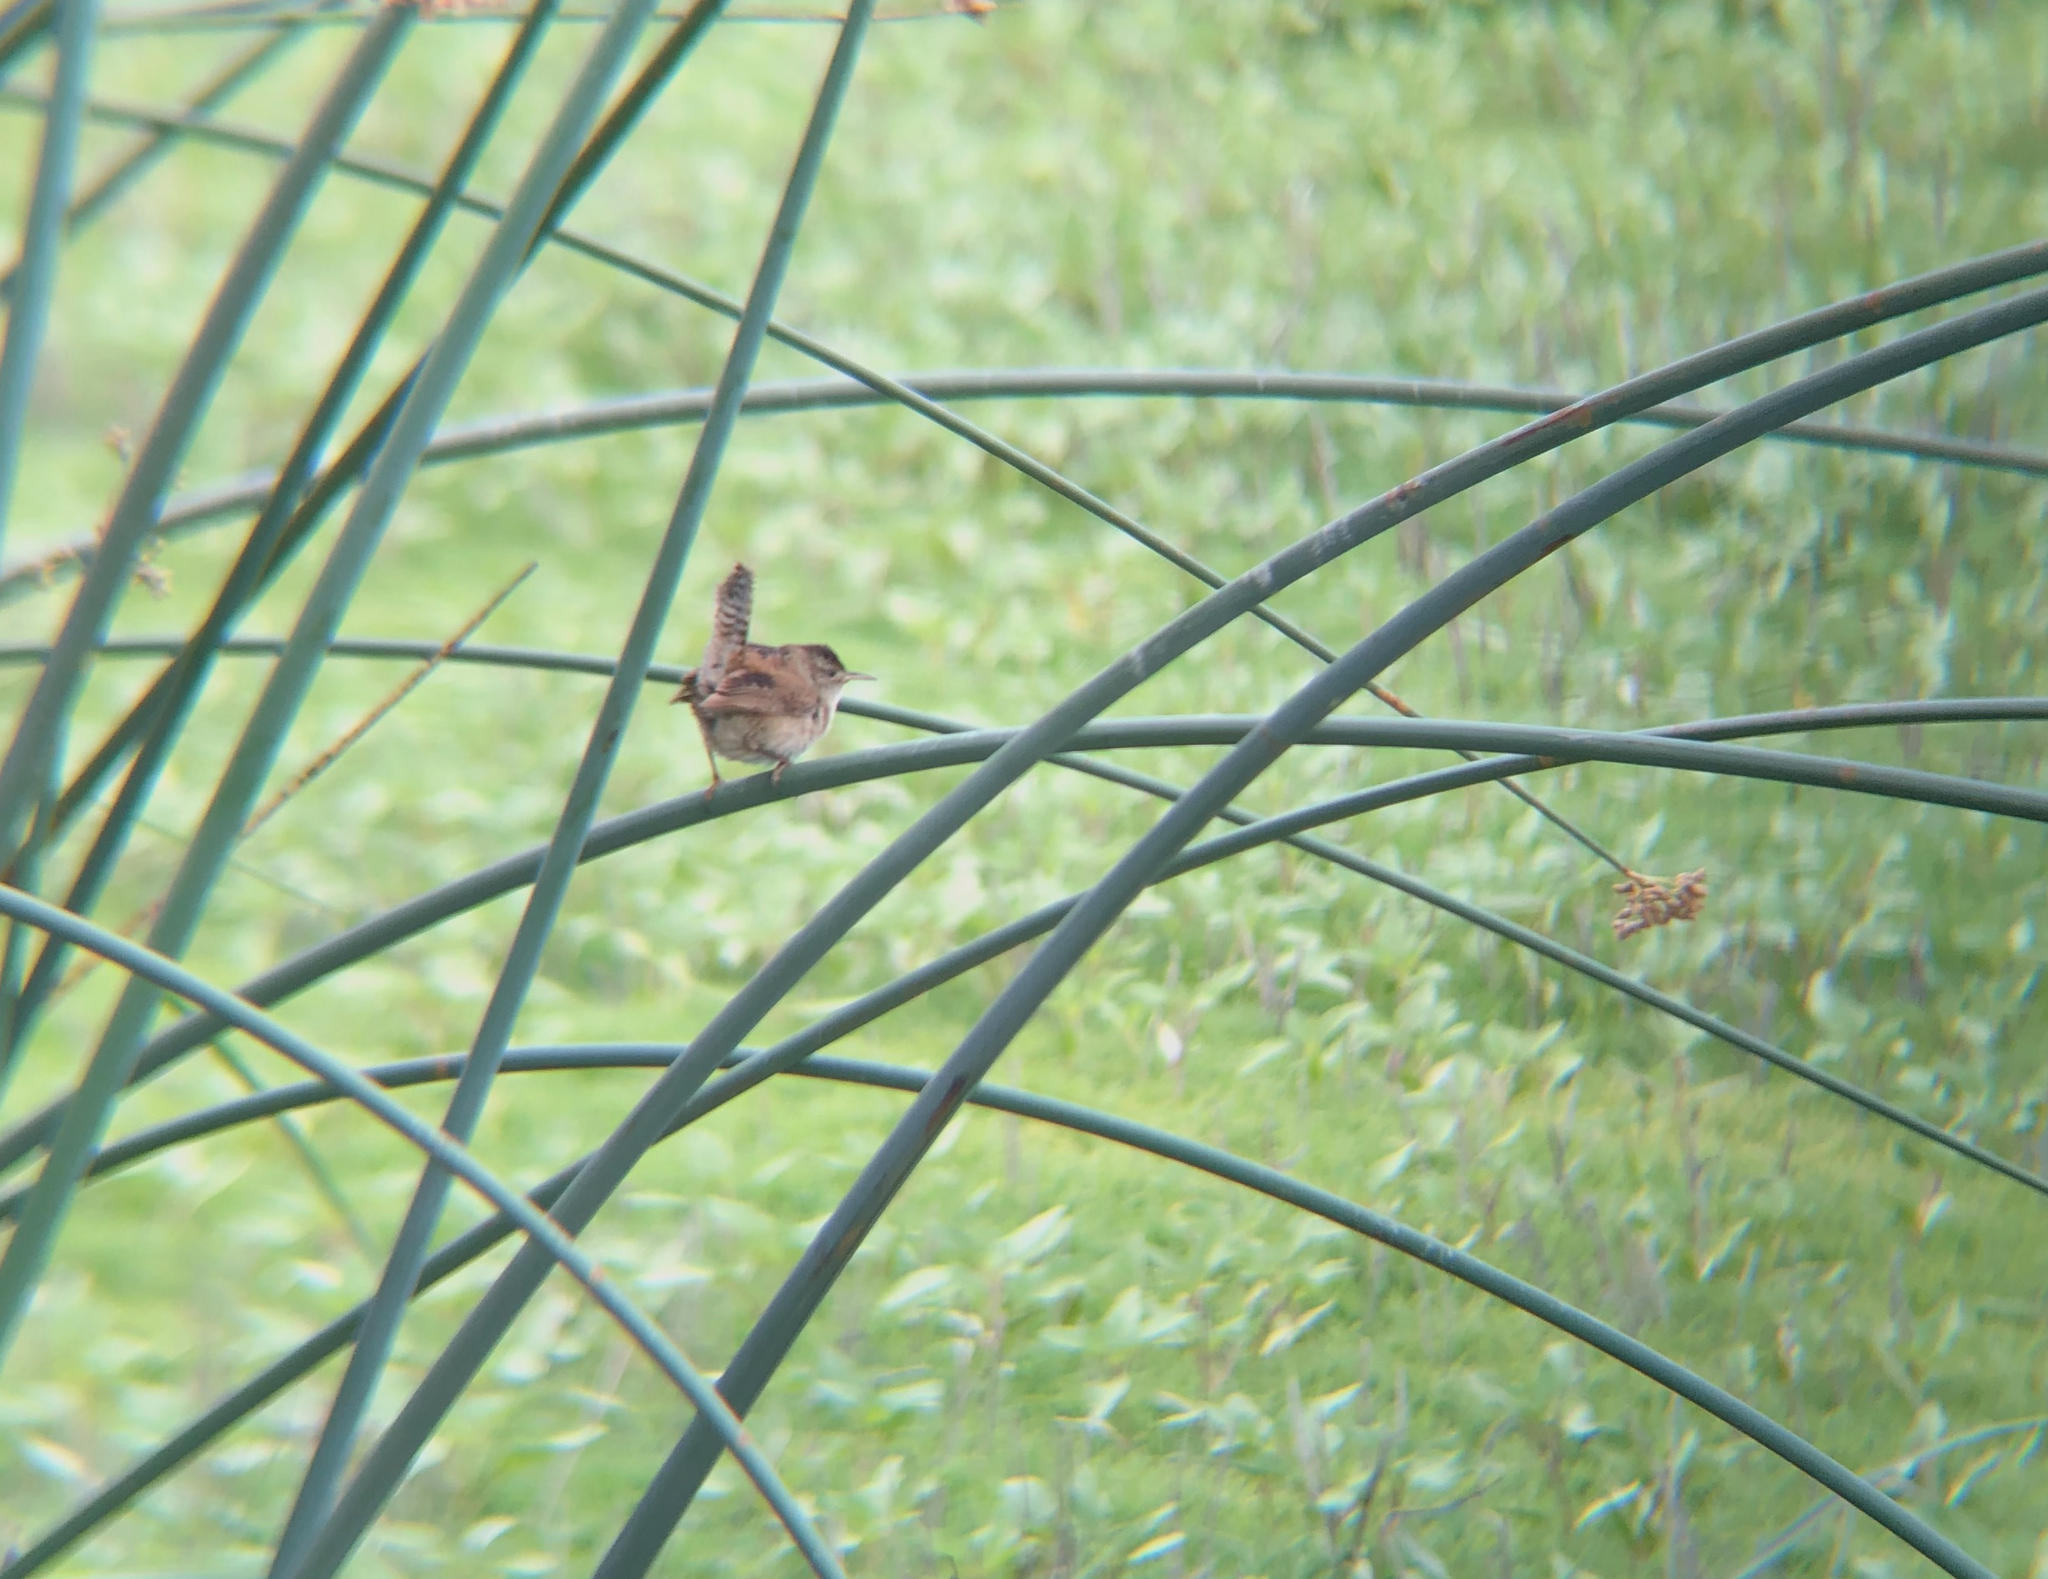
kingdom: Animalia
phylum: Chordata
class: Aves
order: Passeriformes
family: Troglodytidae
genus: Cistothorus
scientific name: Cistothorus palustris
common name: Marsh wren
